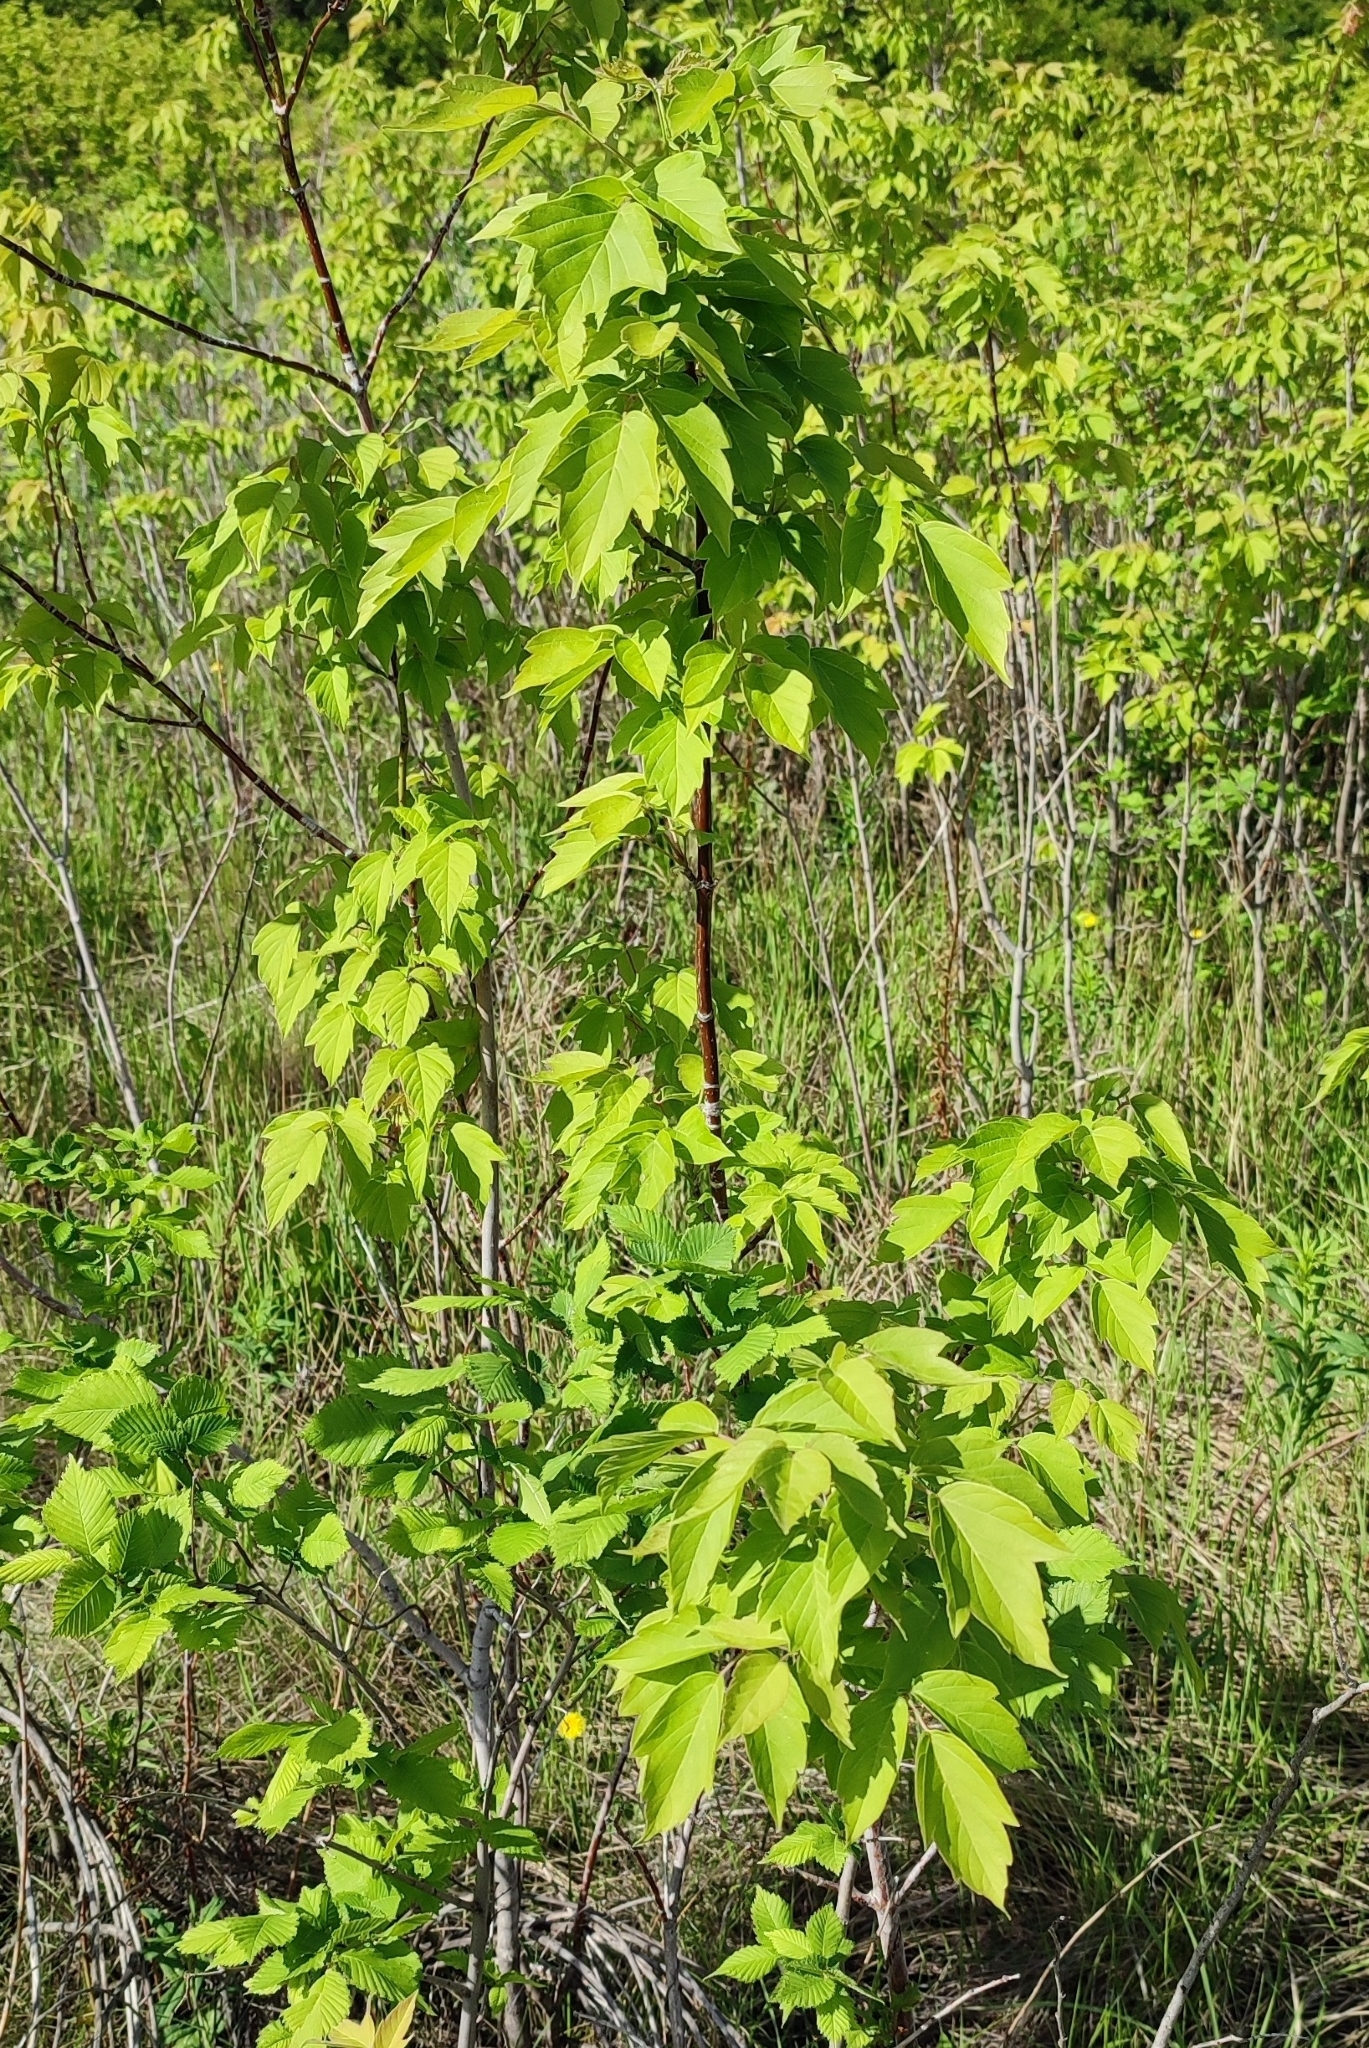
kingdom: Plantae
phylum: Tracheophyta
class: Magnoliopsida
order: Sapindales
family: Sapindaceae
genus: Acer
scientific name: Acer negundo
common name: Ashleaf maple
